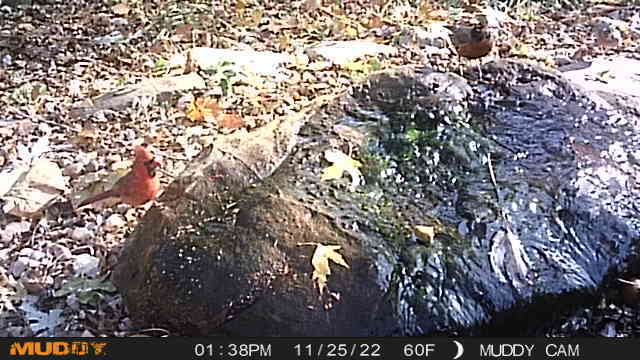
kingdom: Animalia
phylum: Chordata
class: Aves
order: Passeriformes
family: Turdidae
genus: Turdus
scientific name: Turdus migratorius
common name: American robin
